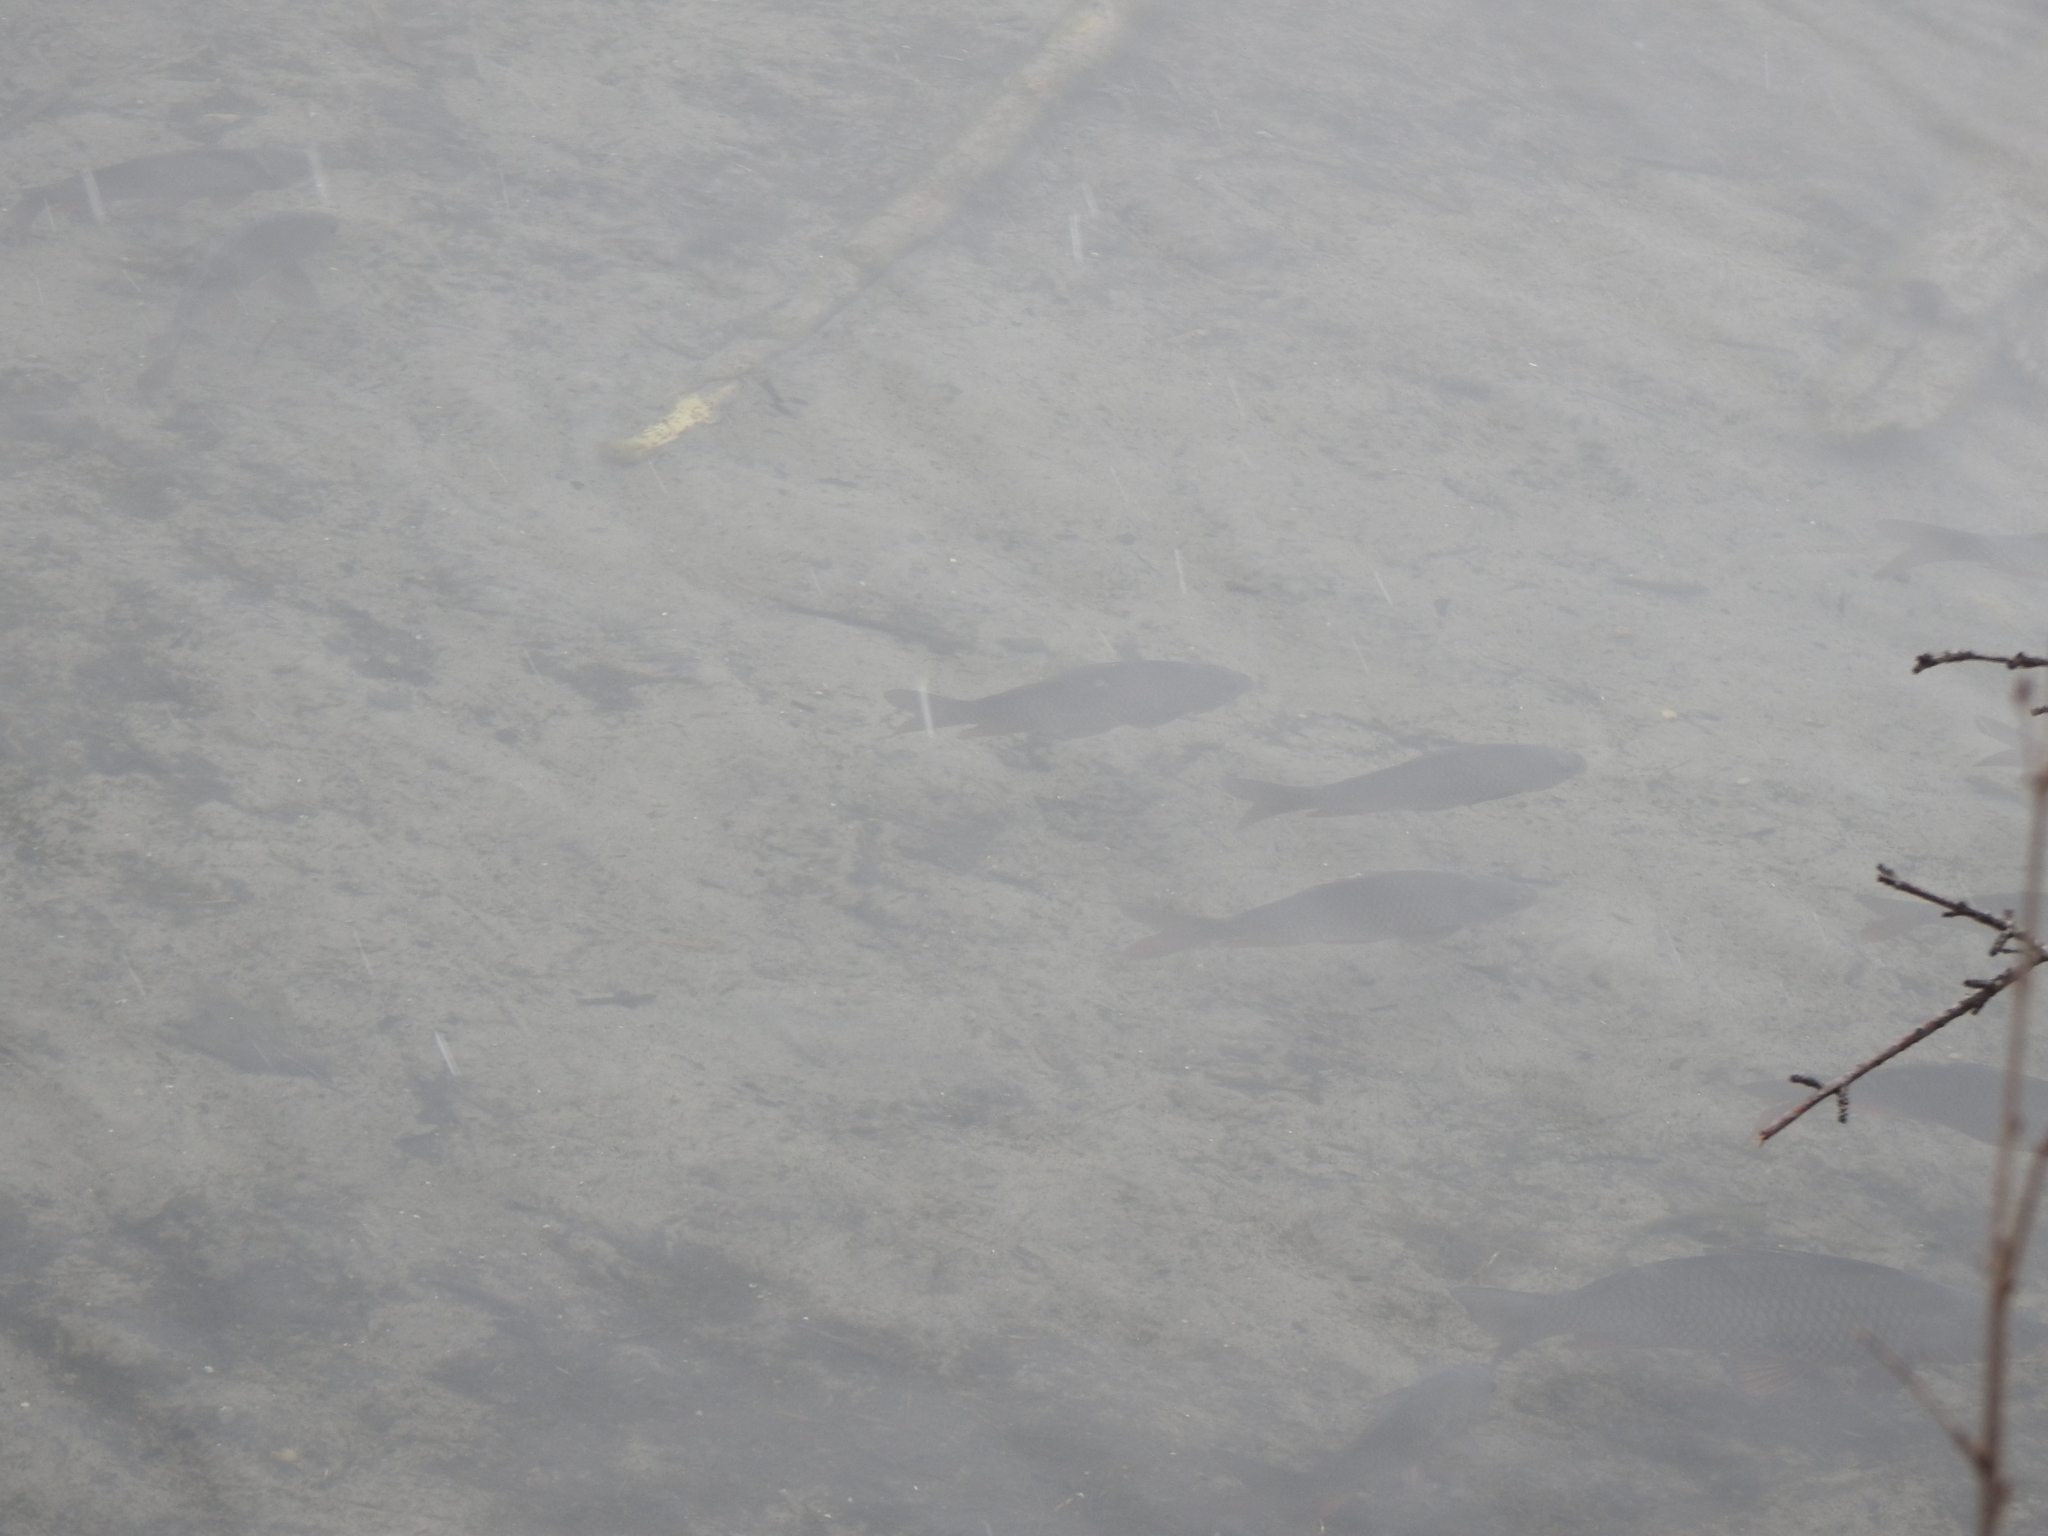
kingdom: Animalia
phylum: Chordata
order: Cypriniformes
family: Cyprinidae
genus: Cyprinus
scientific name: Cyprinus carpio
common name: Common carp
